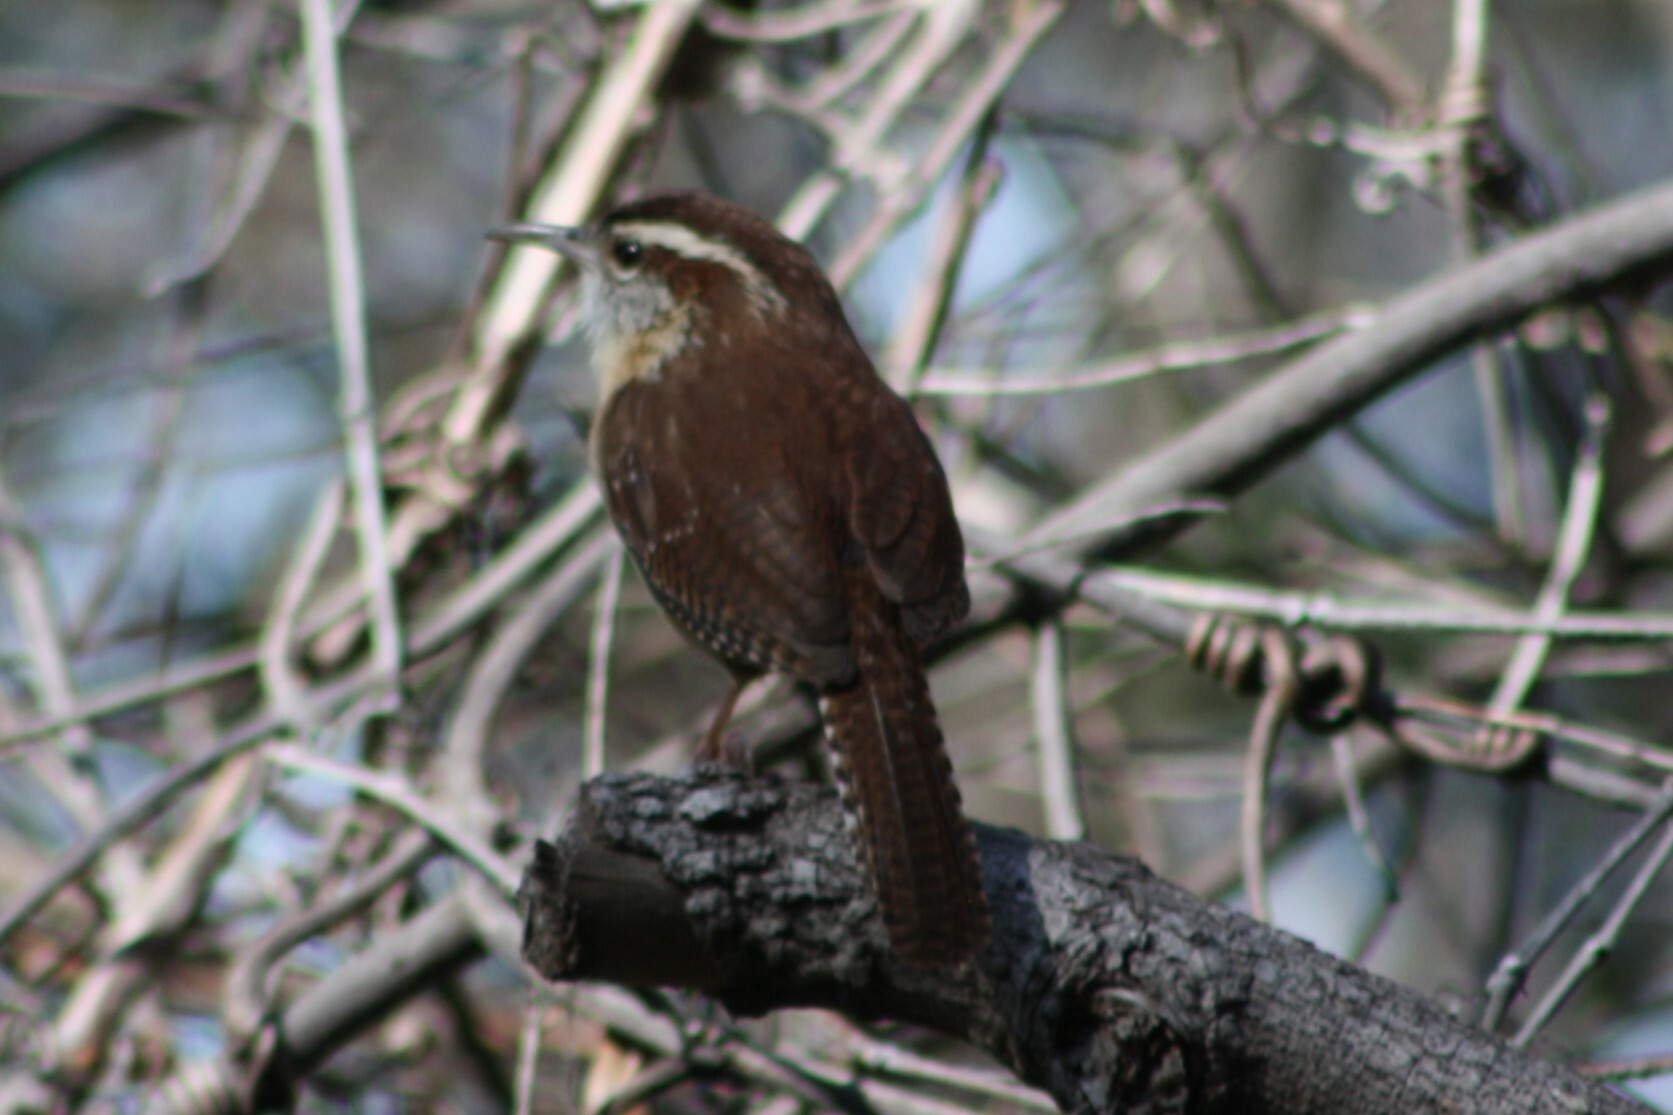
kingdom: Animalia
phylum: Chordata
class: Aves
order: Passeriformes
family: Troglodytidae
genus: Thryothorus
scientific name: Thryothorus ludovicianus
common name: Carolina wren
